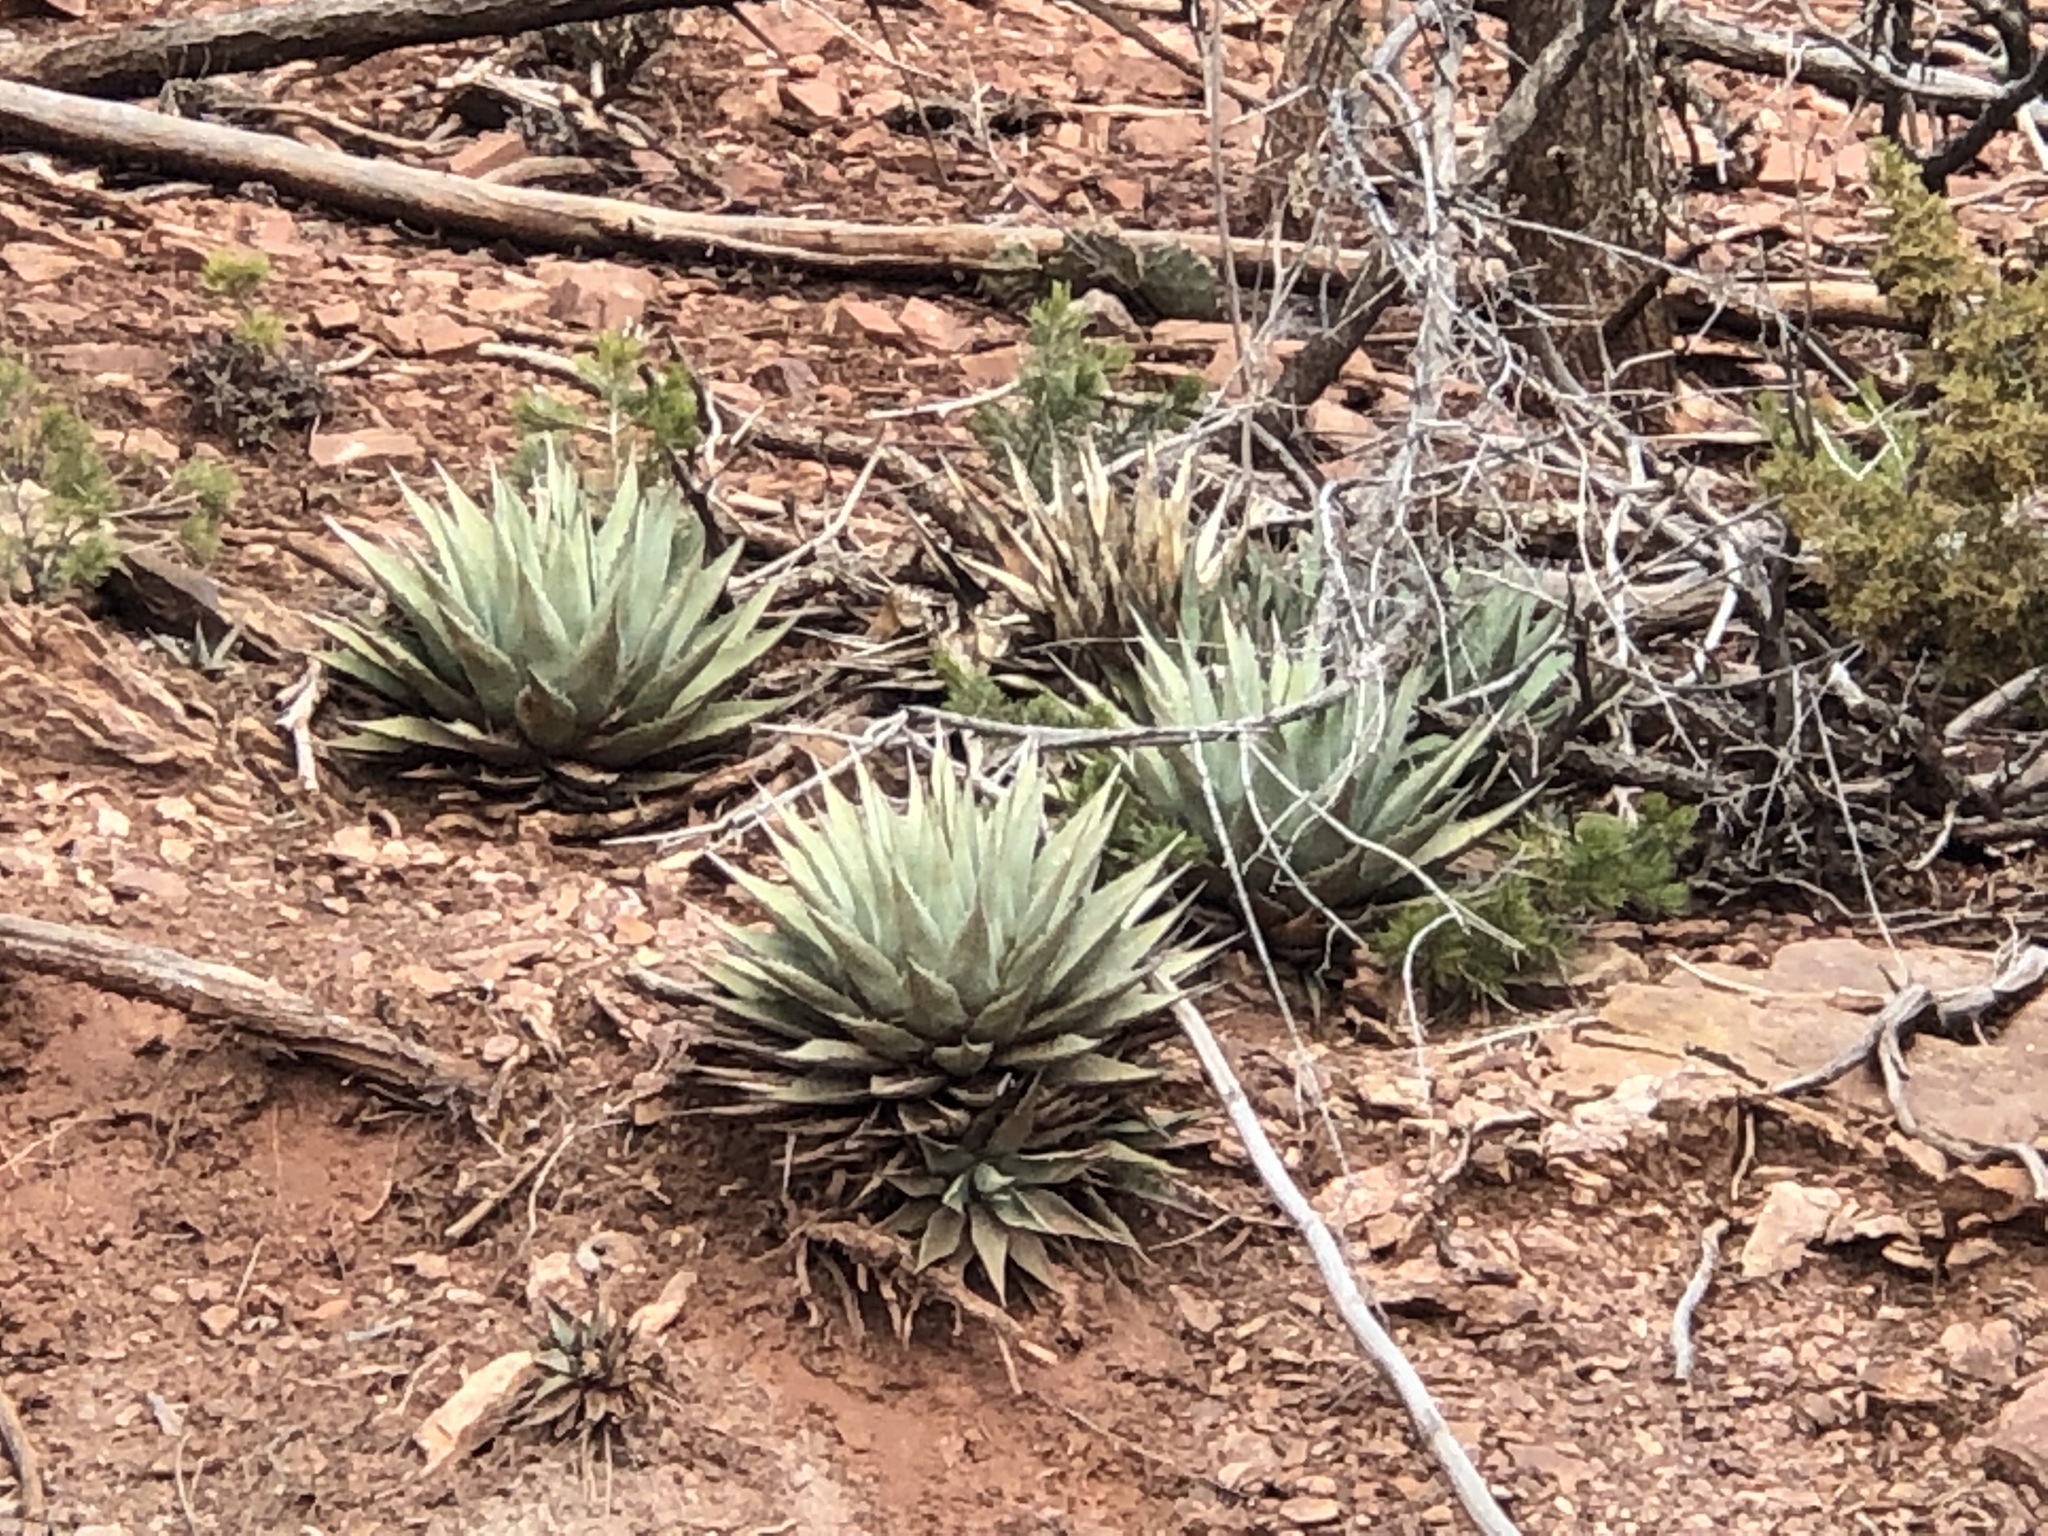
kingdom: Plantae
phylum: Tracheophyta
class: Liliopsida
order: Asparagales
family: Asparagaceae
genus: Agave
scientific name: Agave parryi
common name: Parry's agave
